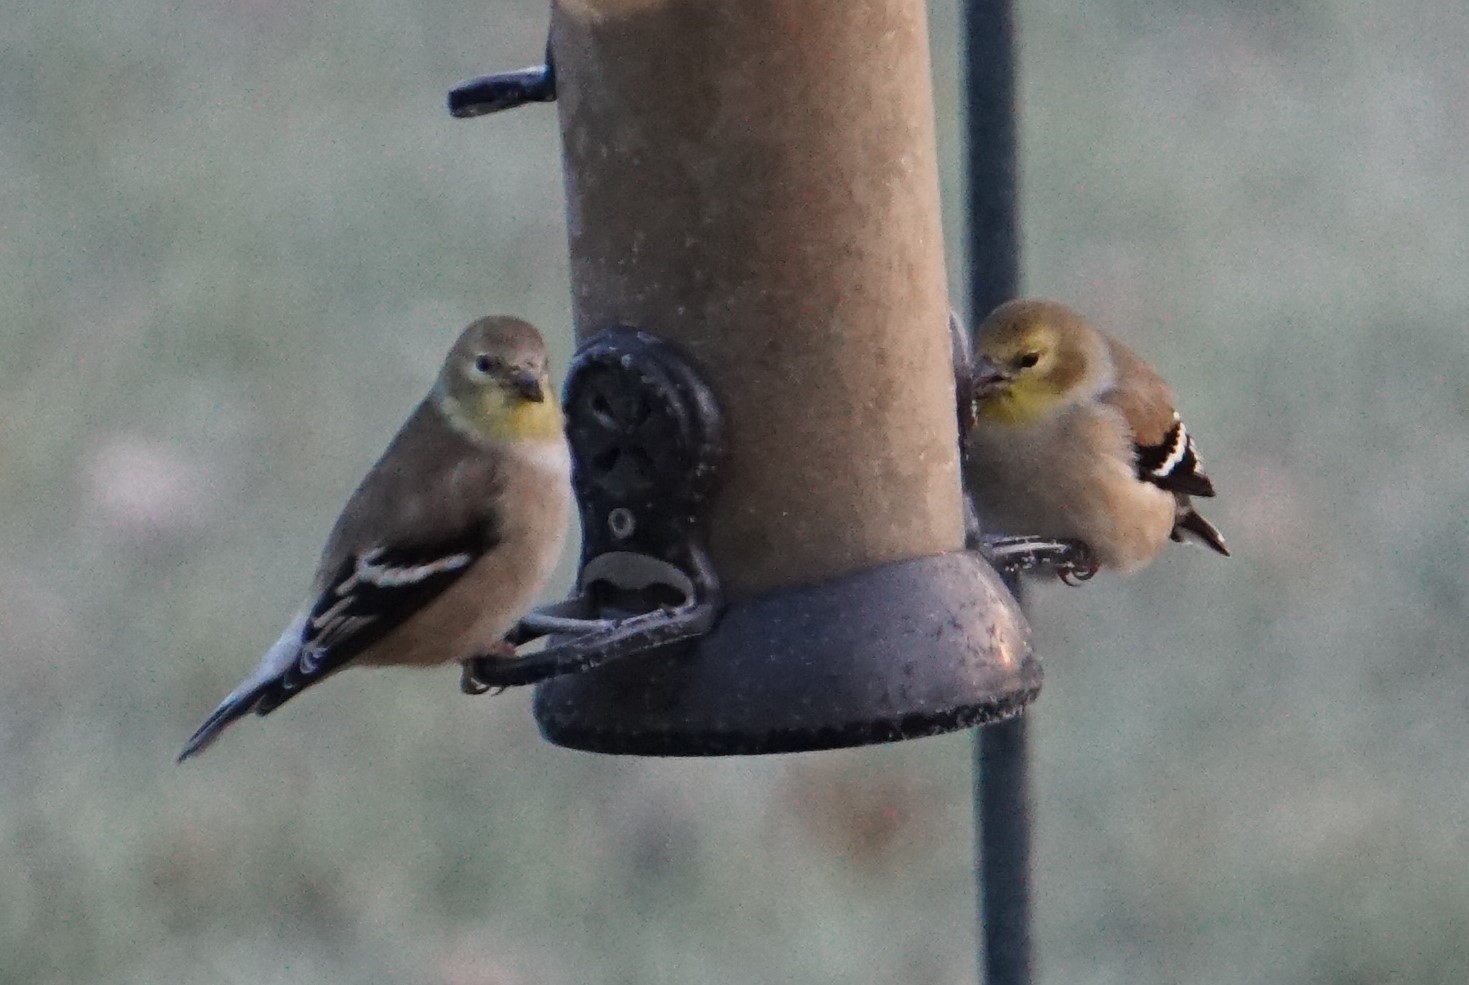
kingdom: Animalia
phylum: Chordata
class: Aves
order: Passeriformes
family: Fringillidae
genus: Spinus
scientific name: Spinus tristis
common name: American goldfinch
